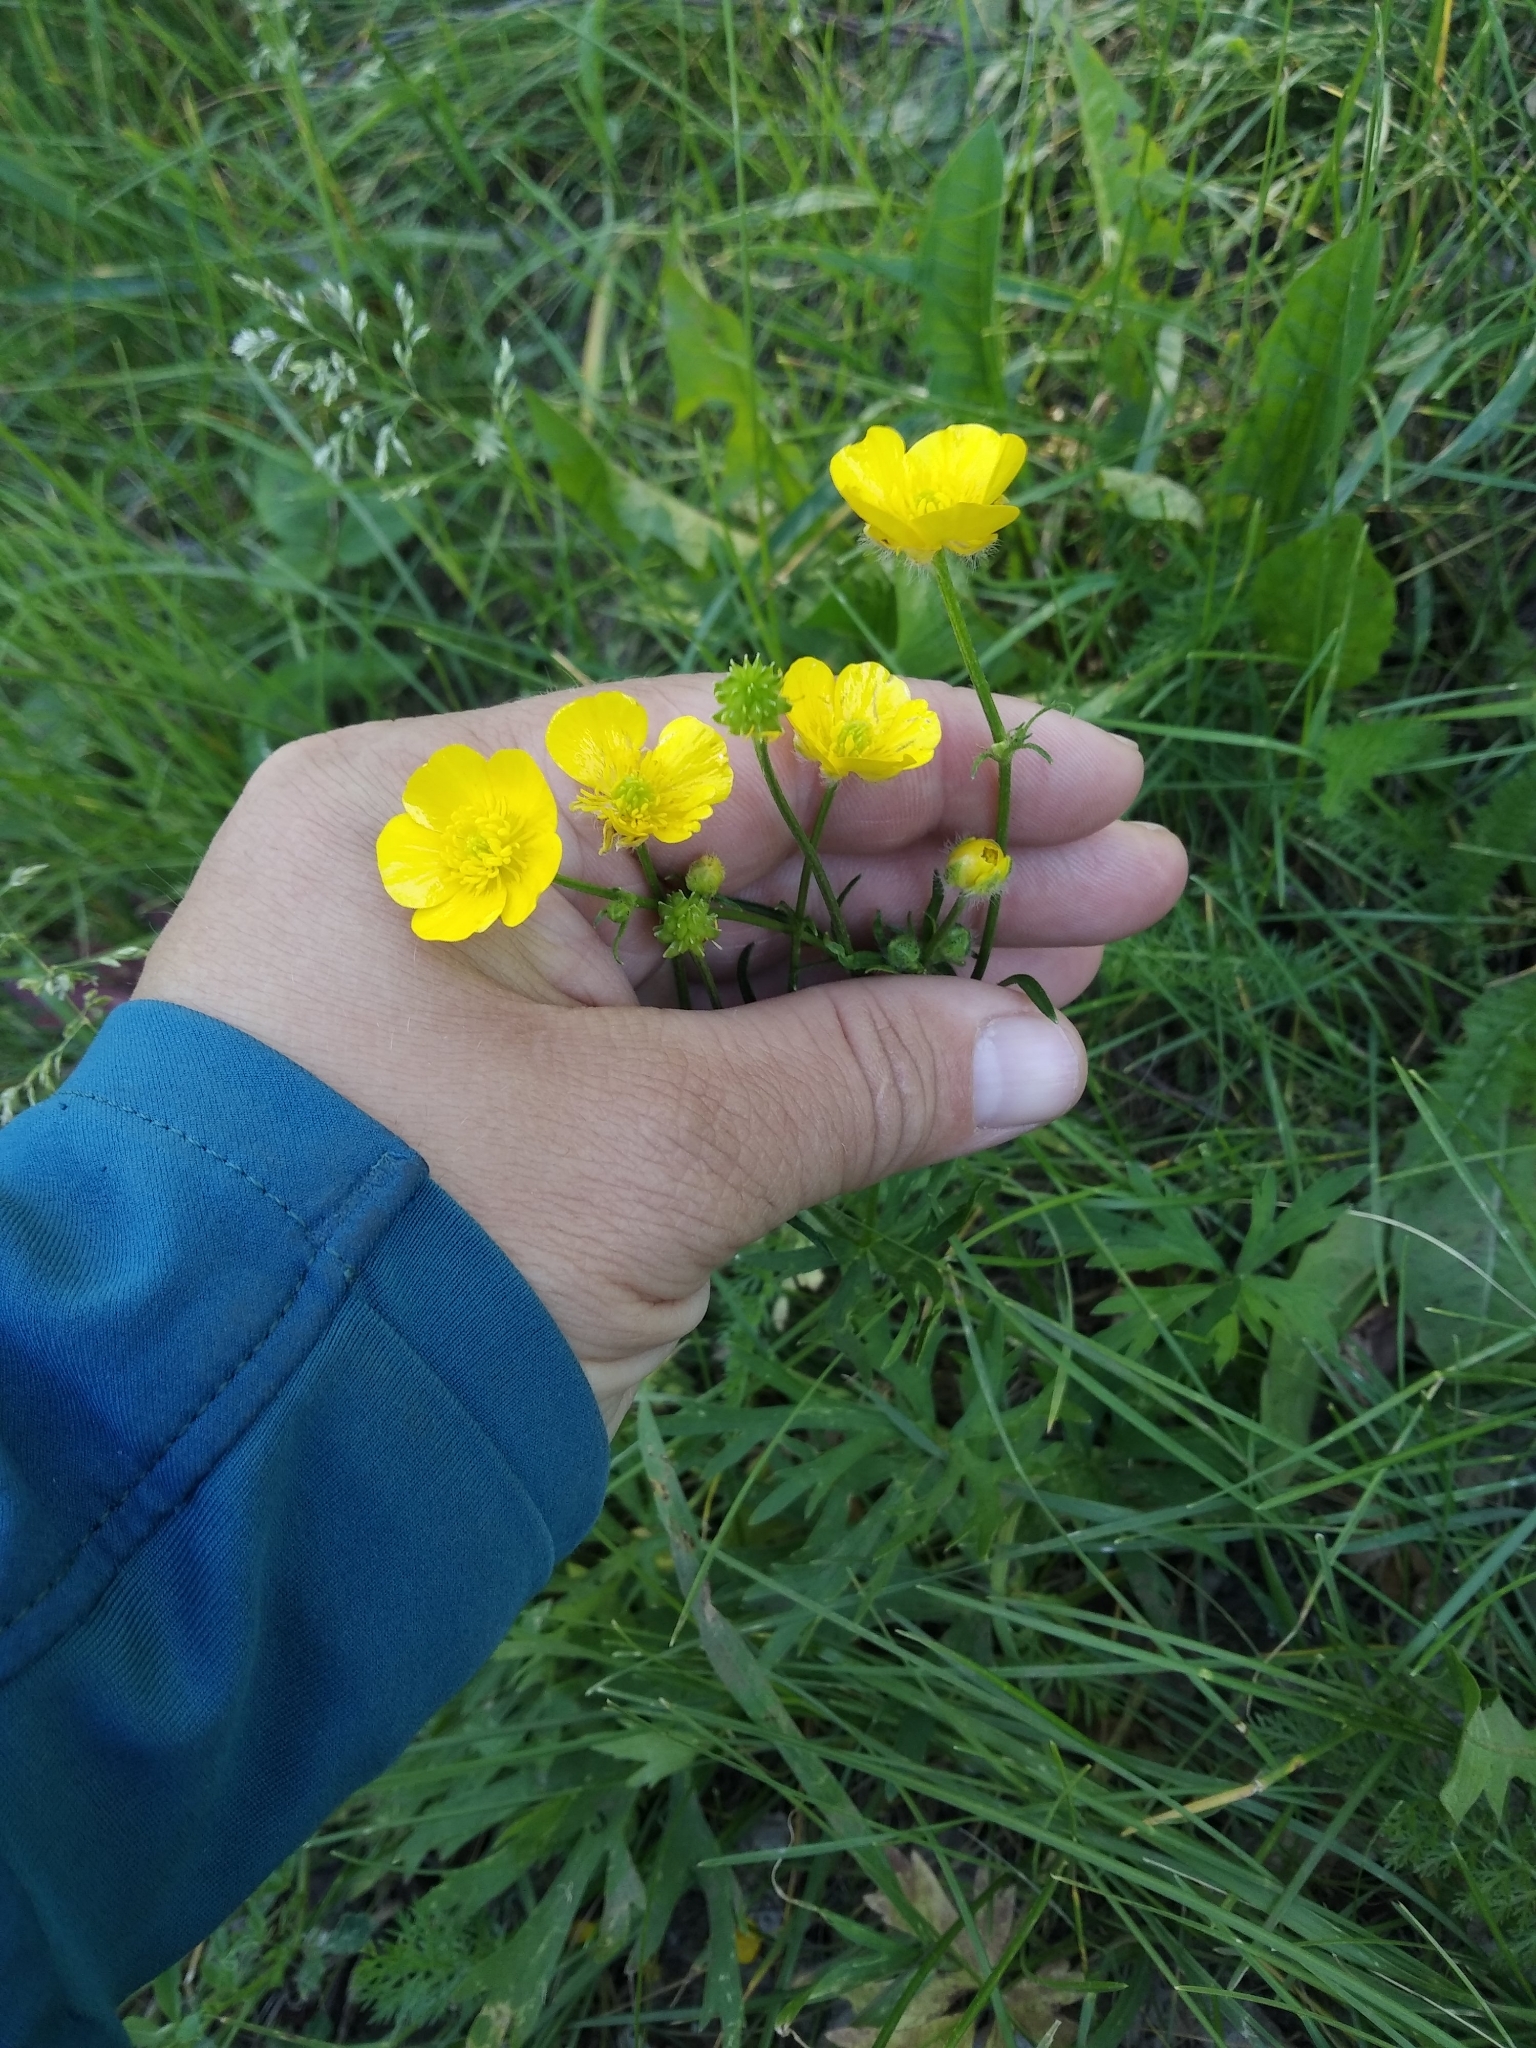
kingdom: Plantae
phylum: Tracheophyta
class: Magnoliopsida
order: Ranunculales
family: Ranunculaceae
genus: Ranunculus
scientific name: Ranunculus polyanthemos
